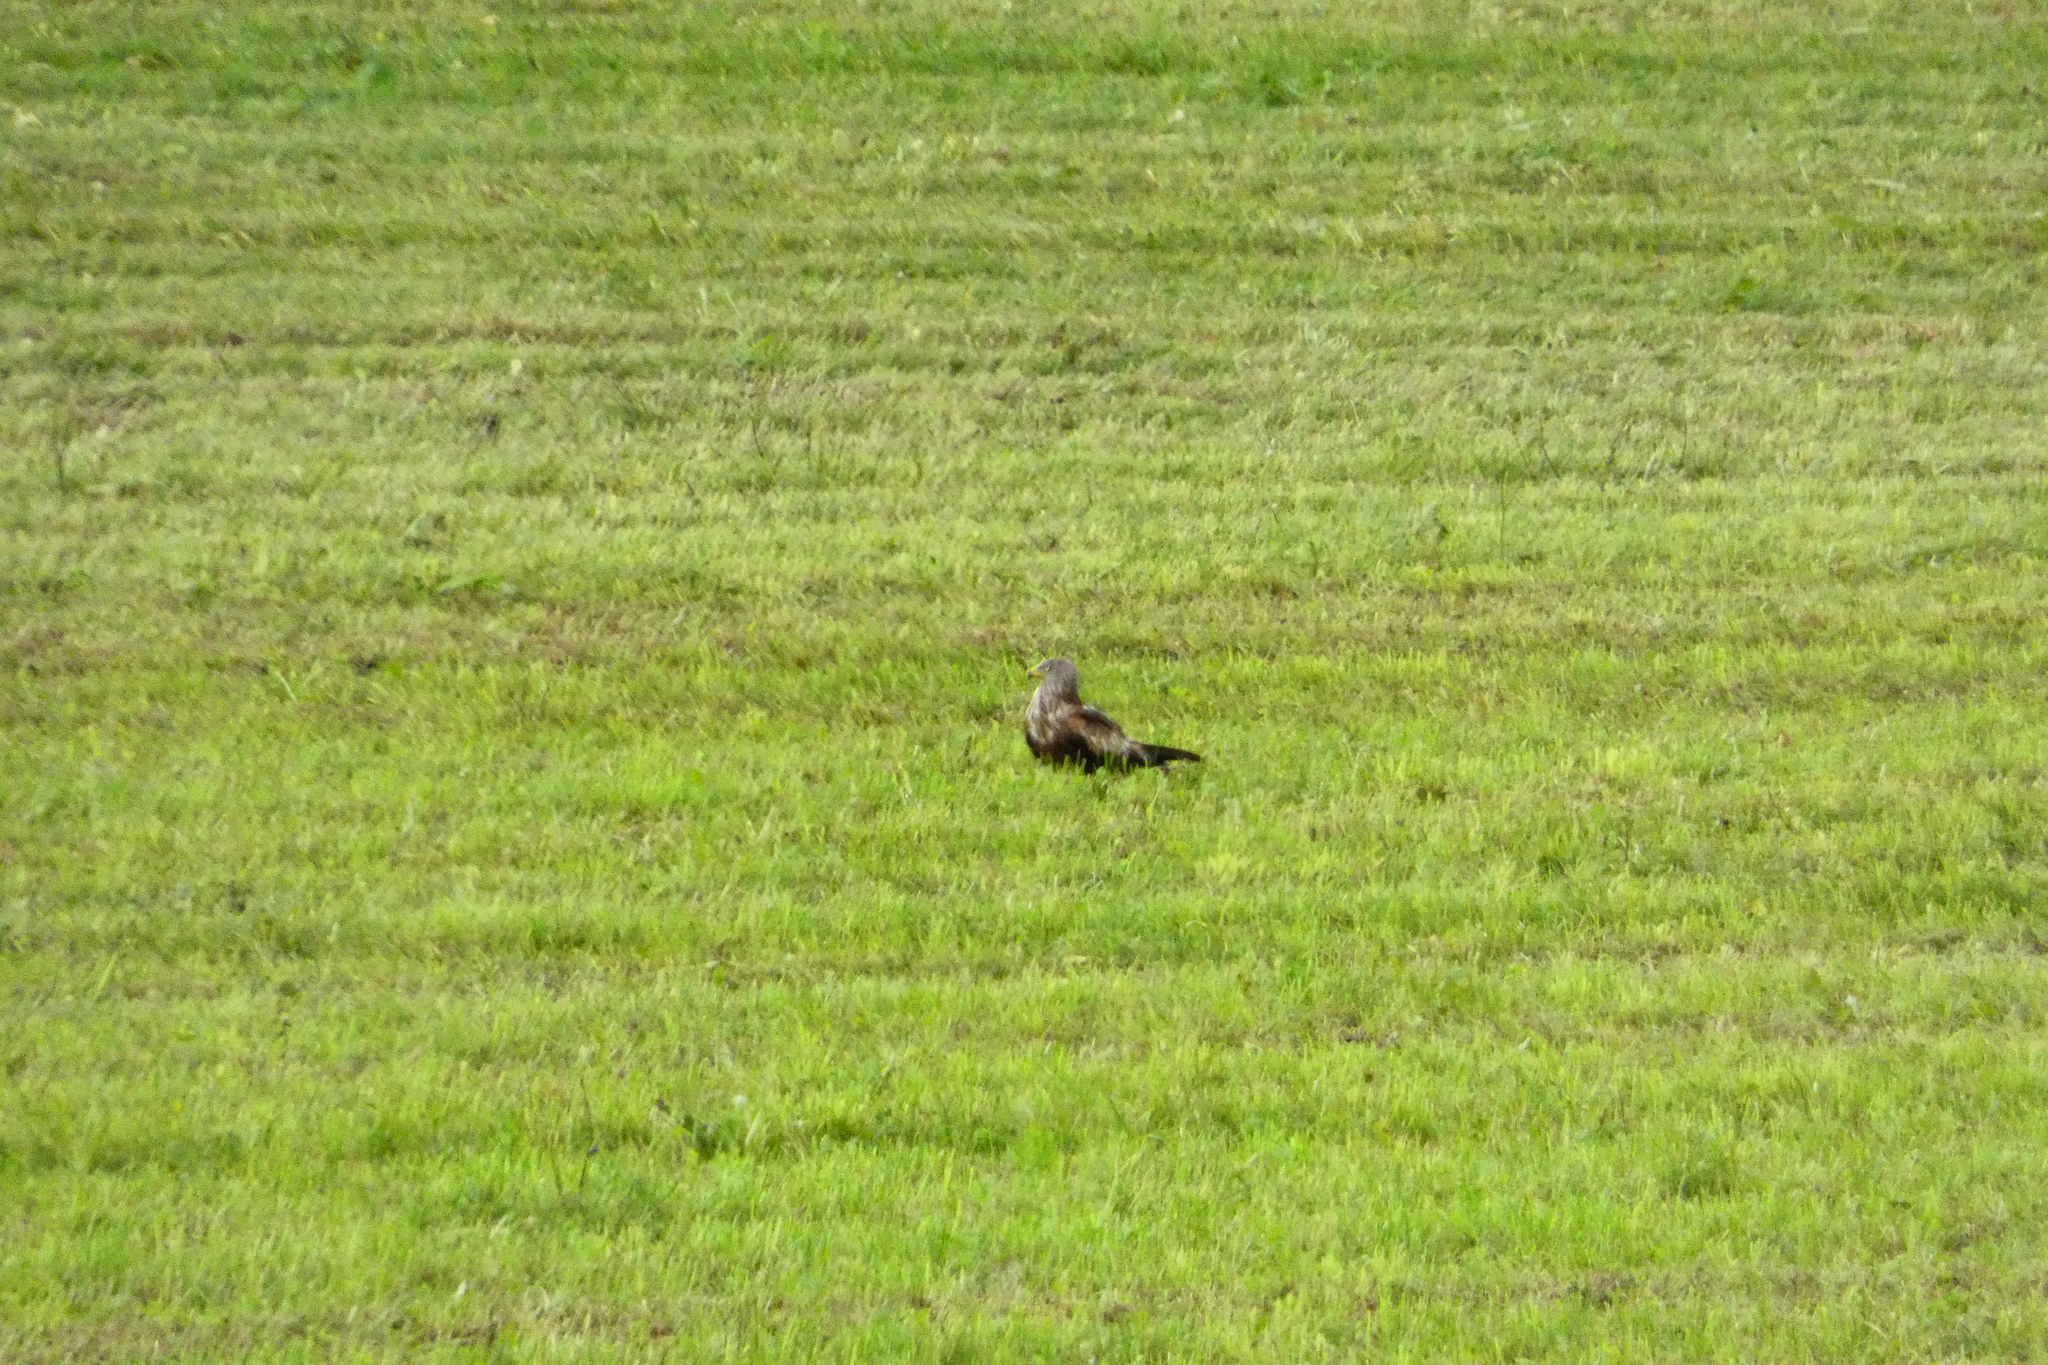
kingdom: Animalia
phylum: Chordata
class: Aves
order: Accipitriformes
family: Accipitridae
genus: Milvus
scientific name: Milvus milvus
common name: Red kite
